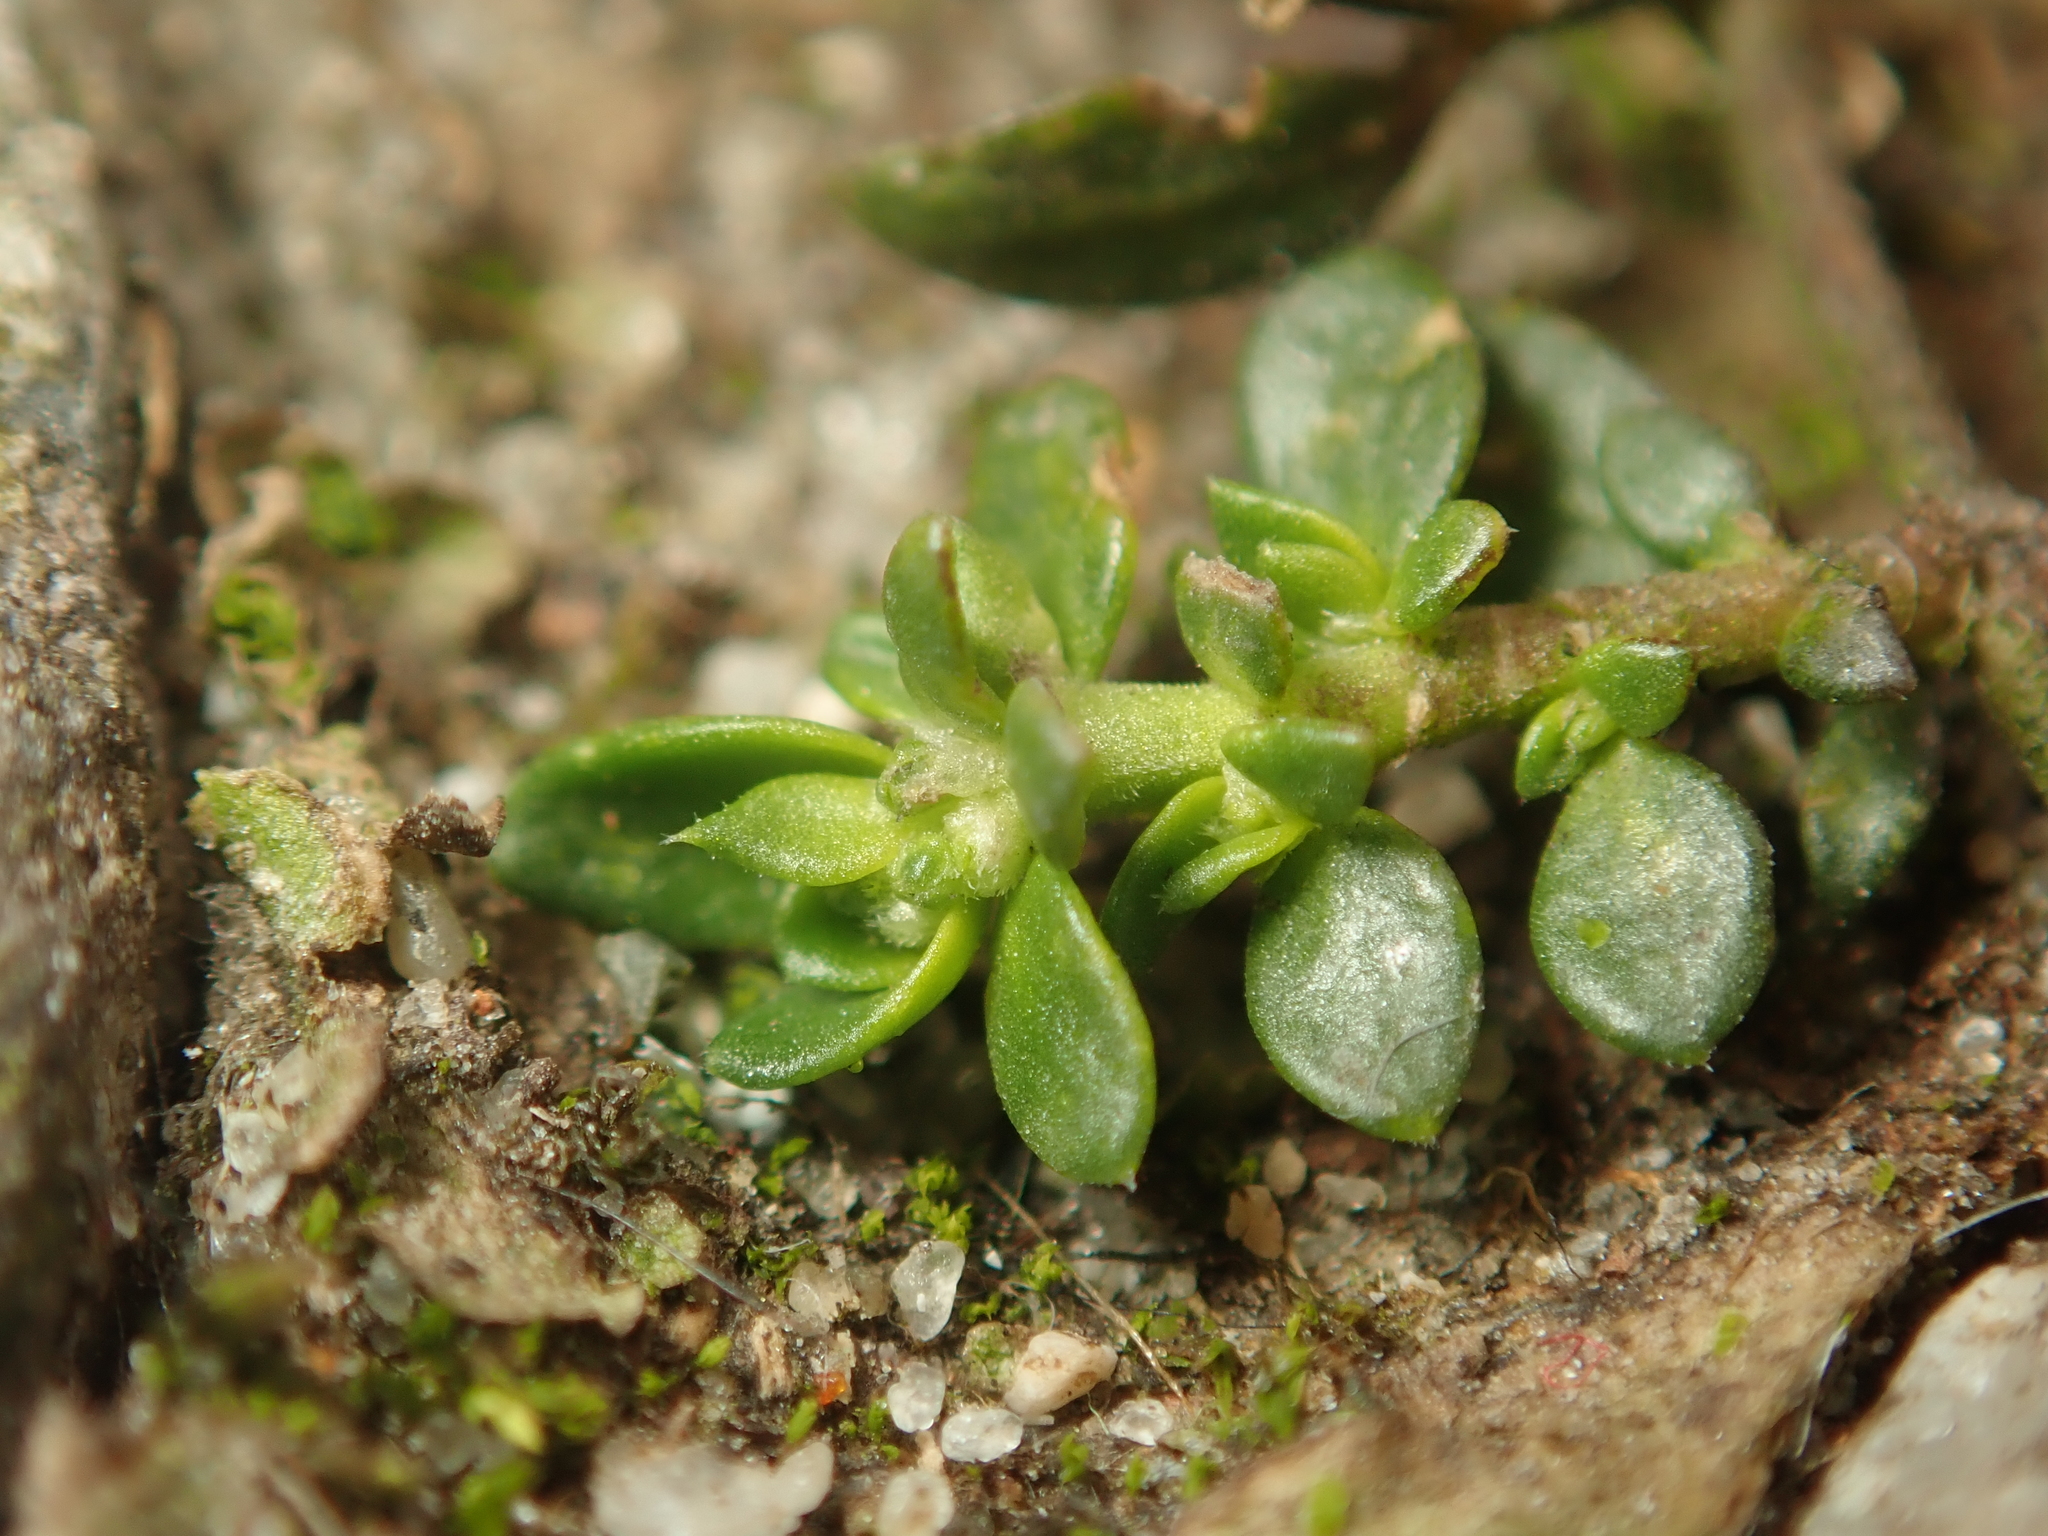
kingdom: Plantae
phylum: Tracheophyta
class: Magnoliopsida
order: Caryophyllales
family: Caryophyllaceae
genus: Herniaria
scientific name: Herniaria glabra
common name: Smooth rupturewort
